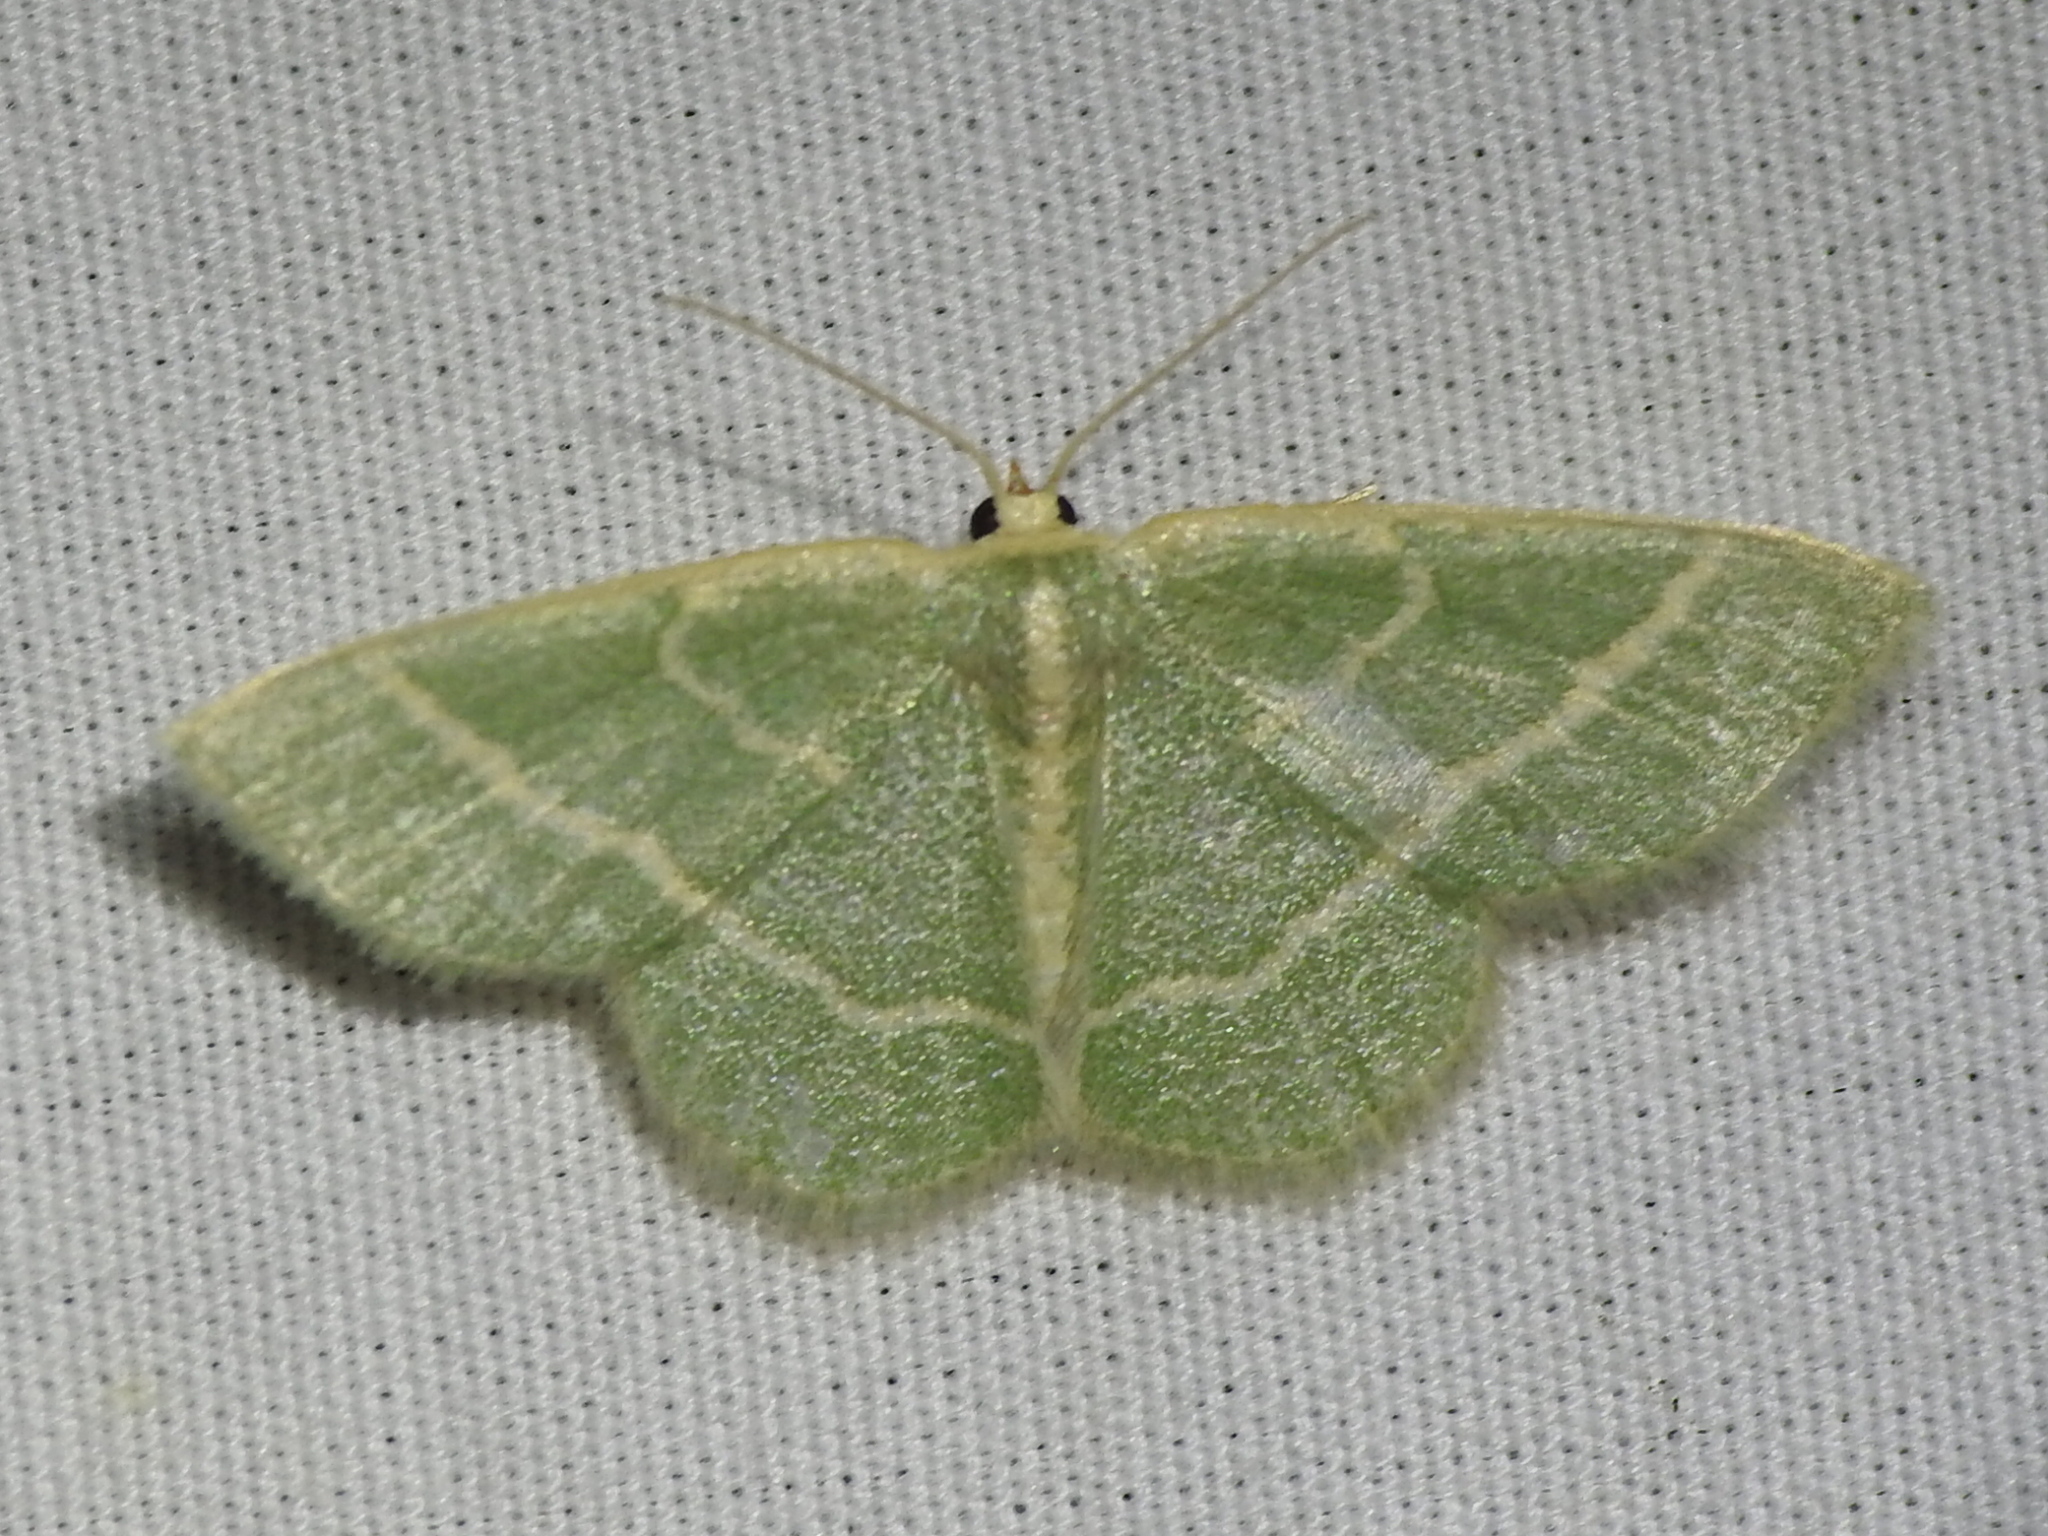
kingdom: Animalia
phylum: Arthropoda
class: Insecta
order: Lepidoptera
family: Geometridae
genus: Chlorochlamys
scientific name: Chlorochlamys chloroleucaria
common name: Blackberry looper
